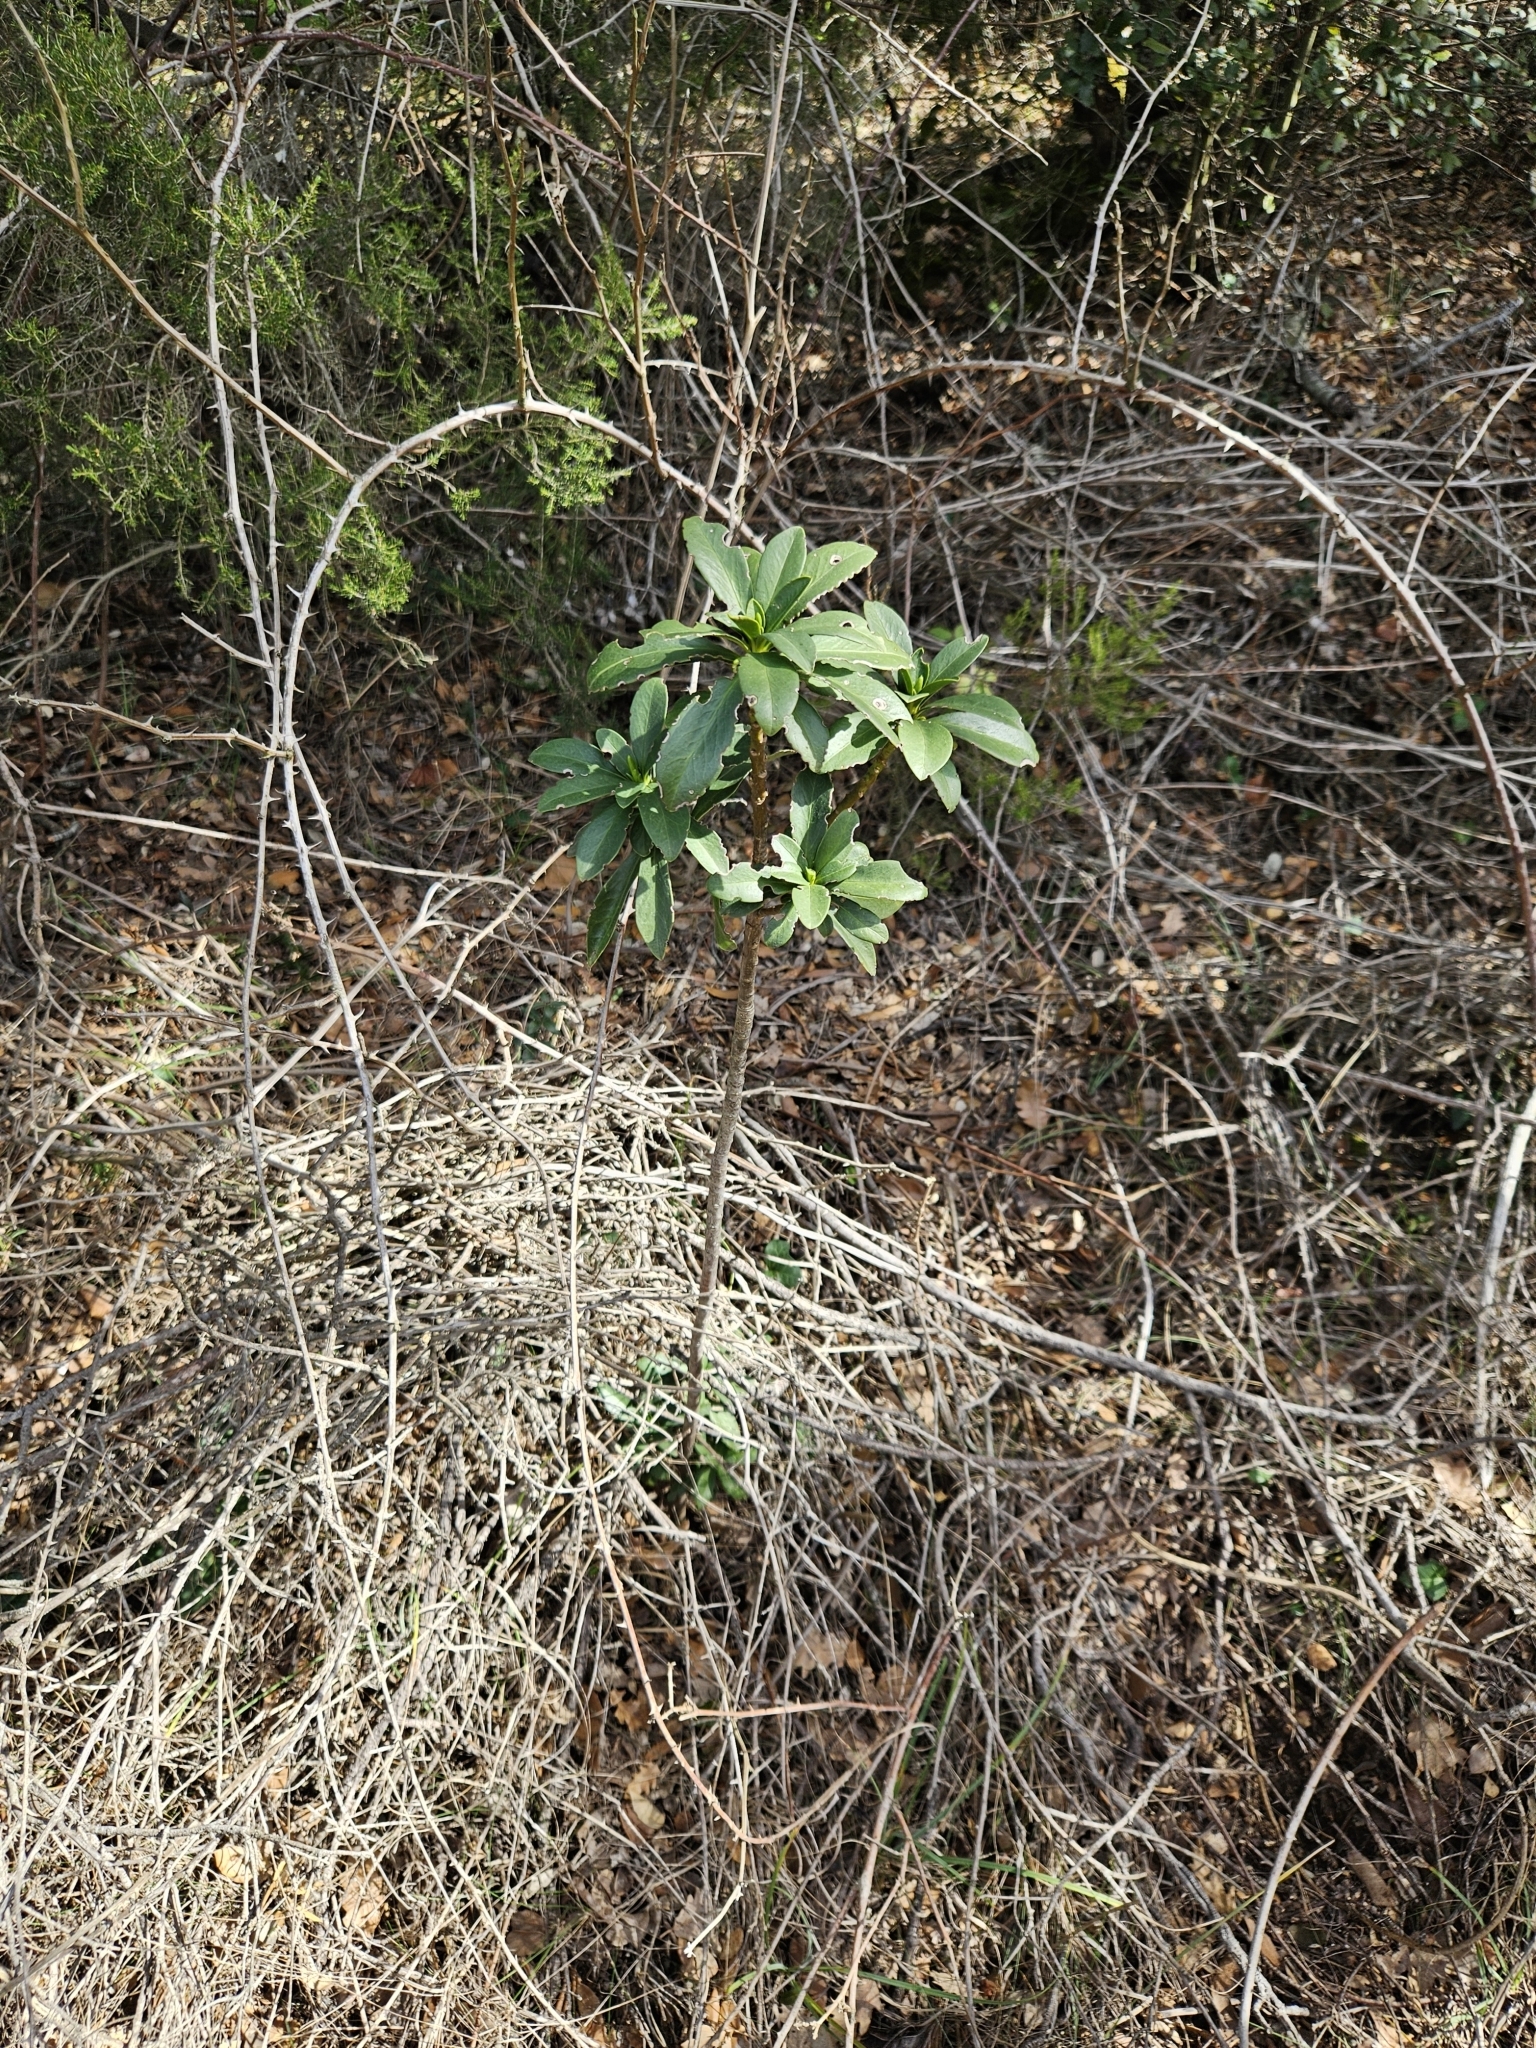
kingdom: Plantae
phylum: Tracheophyta
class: Magnoliopsida
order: Malvales
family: Thymelaeaceae
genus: Daphne
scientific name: Daphne laureola
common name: Spurge-laurel
